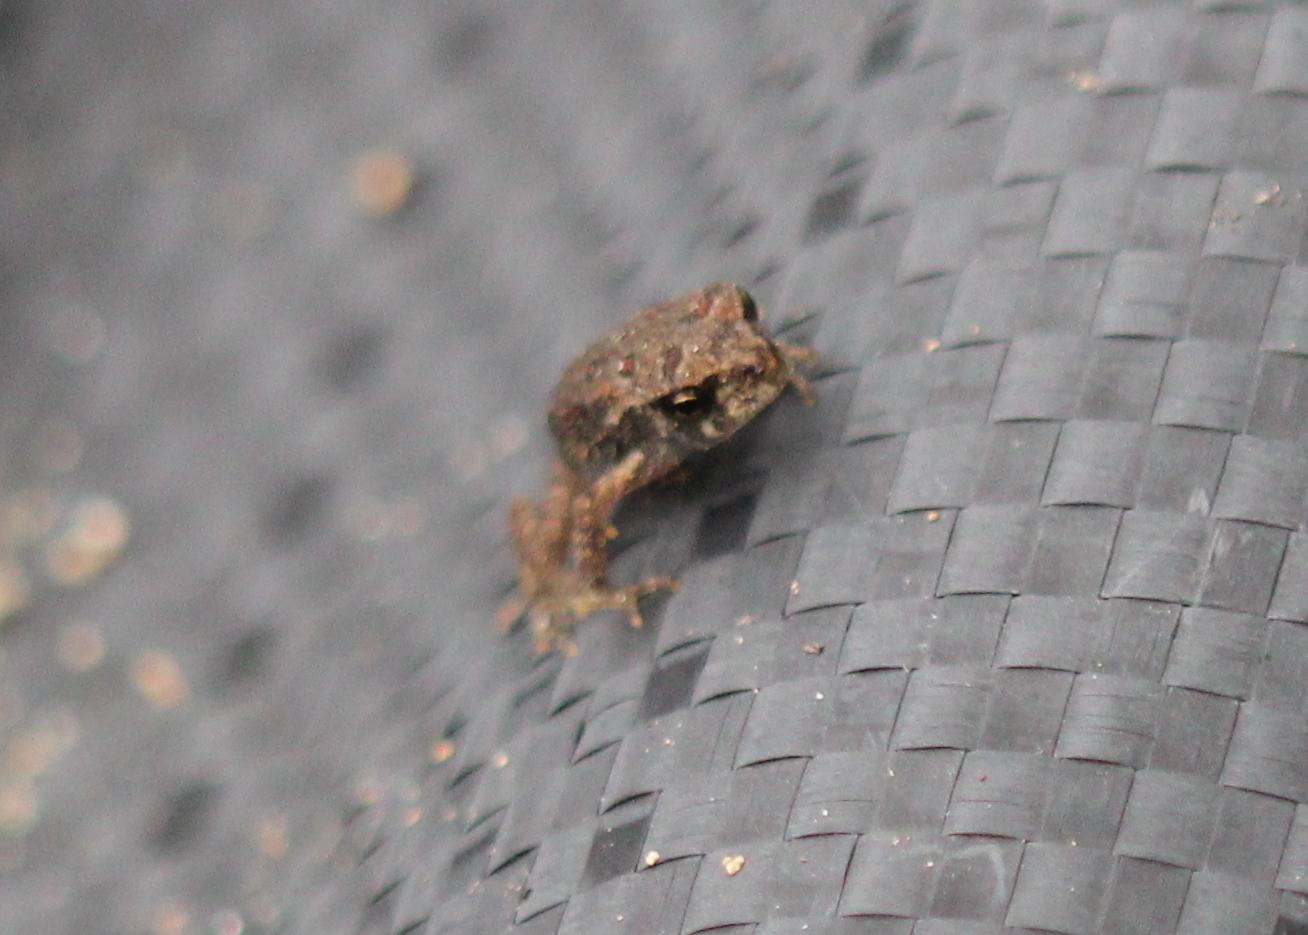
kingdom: Animalia
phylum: Chordata
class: Amphibia
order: Anura
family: Bufonidae
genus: Anaxyrus
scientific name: Anaxyrus americanus
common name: American toad
